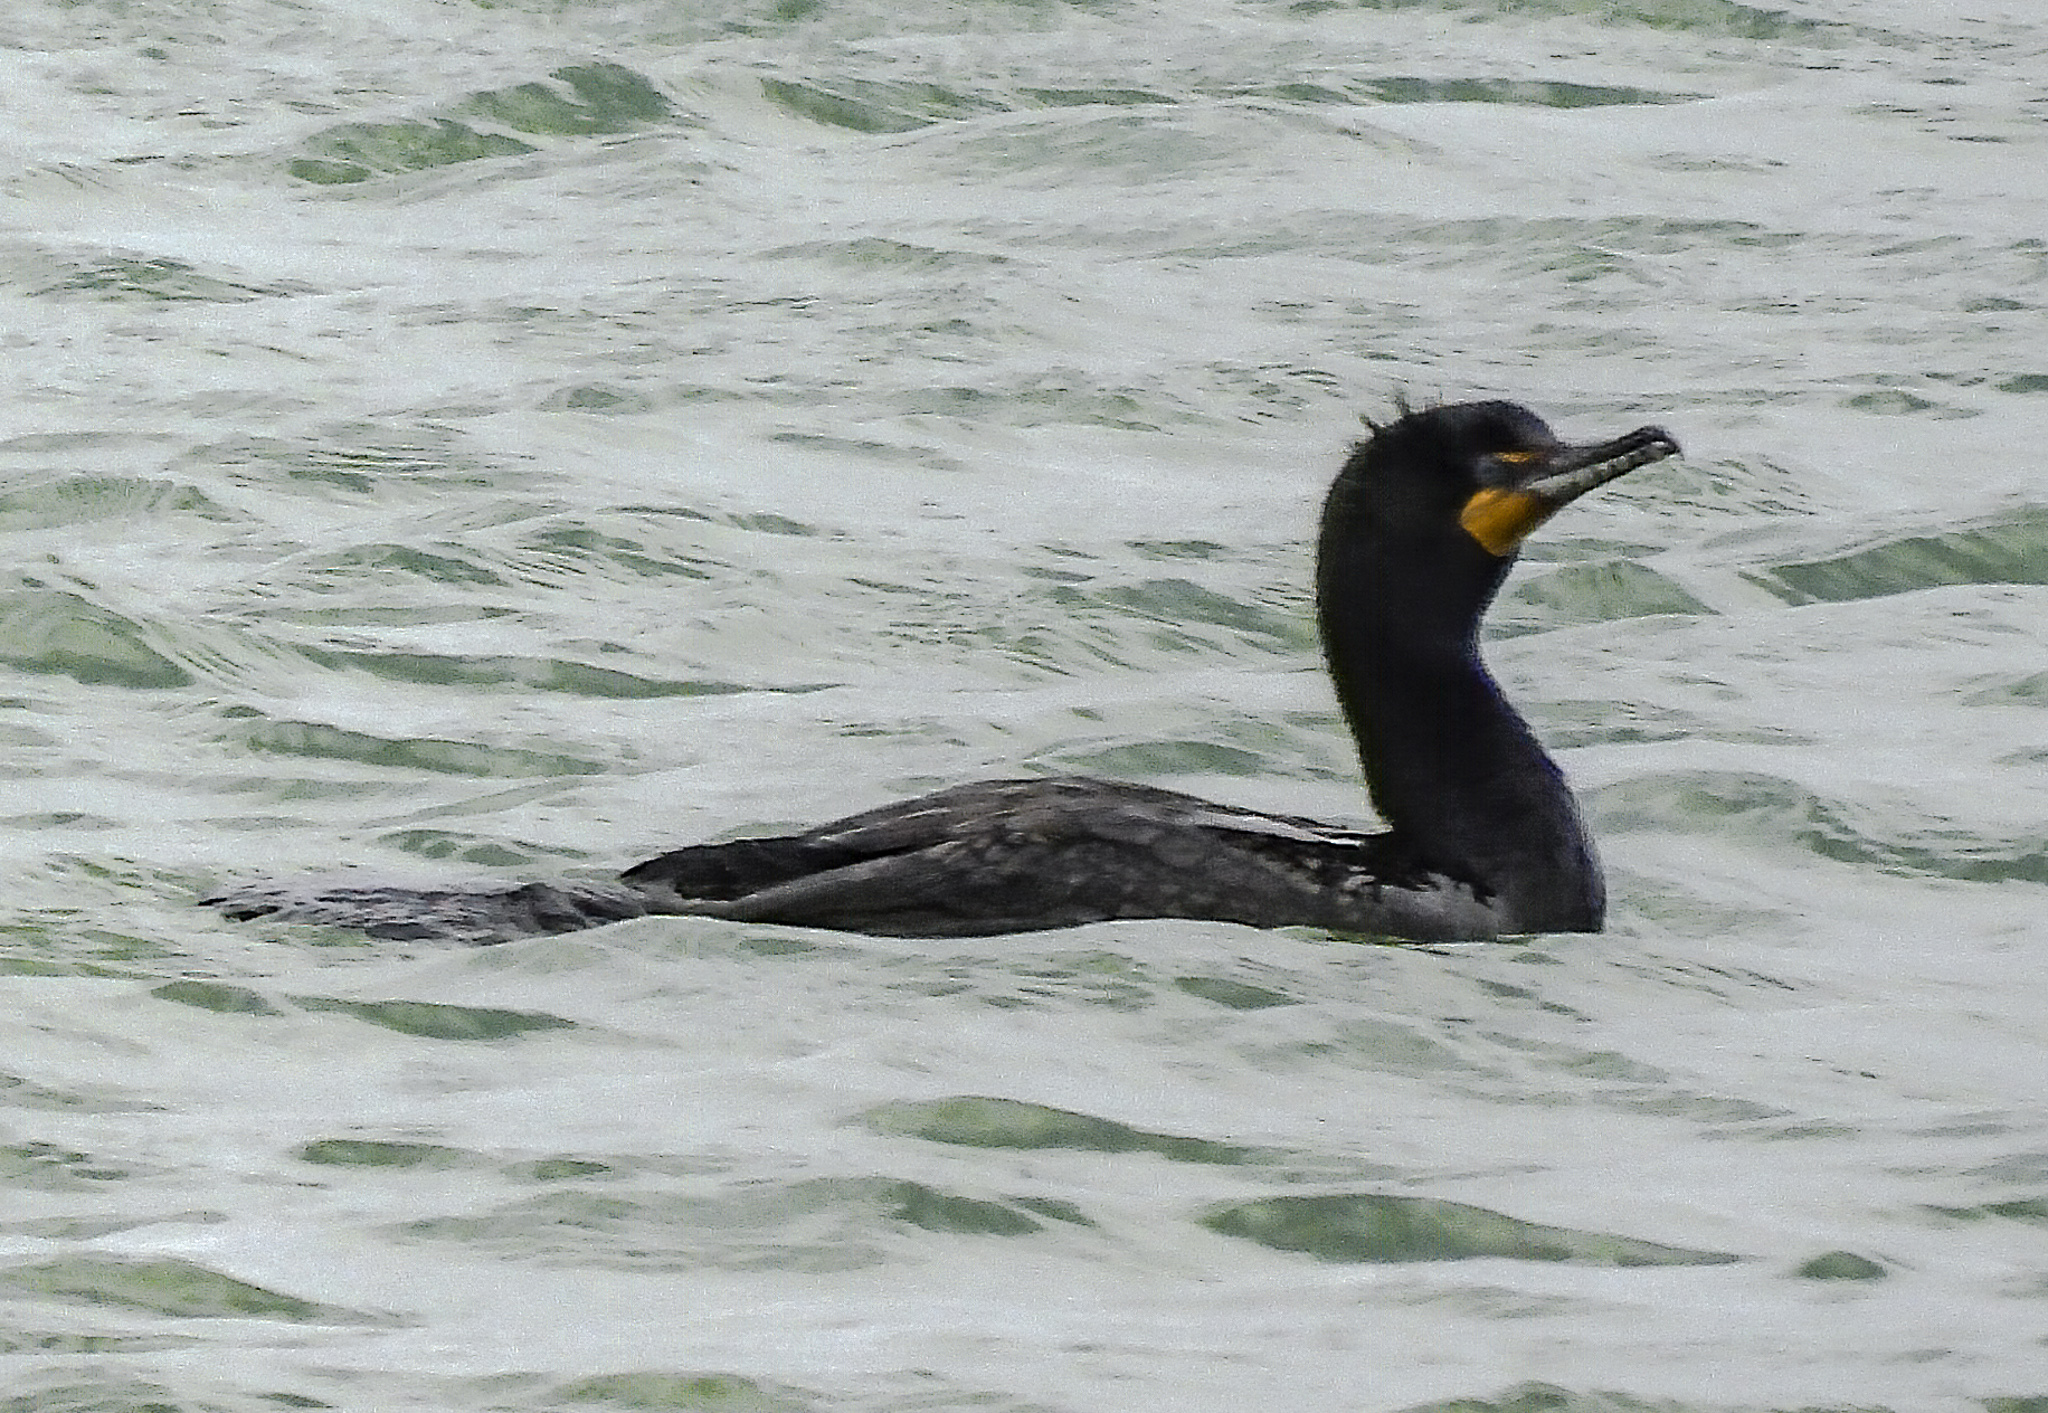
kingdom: Animalia
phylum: Chordata
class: Aves
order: Suliformes
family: Phalacrocoracidae
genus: Phalacrocorax
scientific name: Phalacrocorax auritus
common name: Double-crested cormorant
